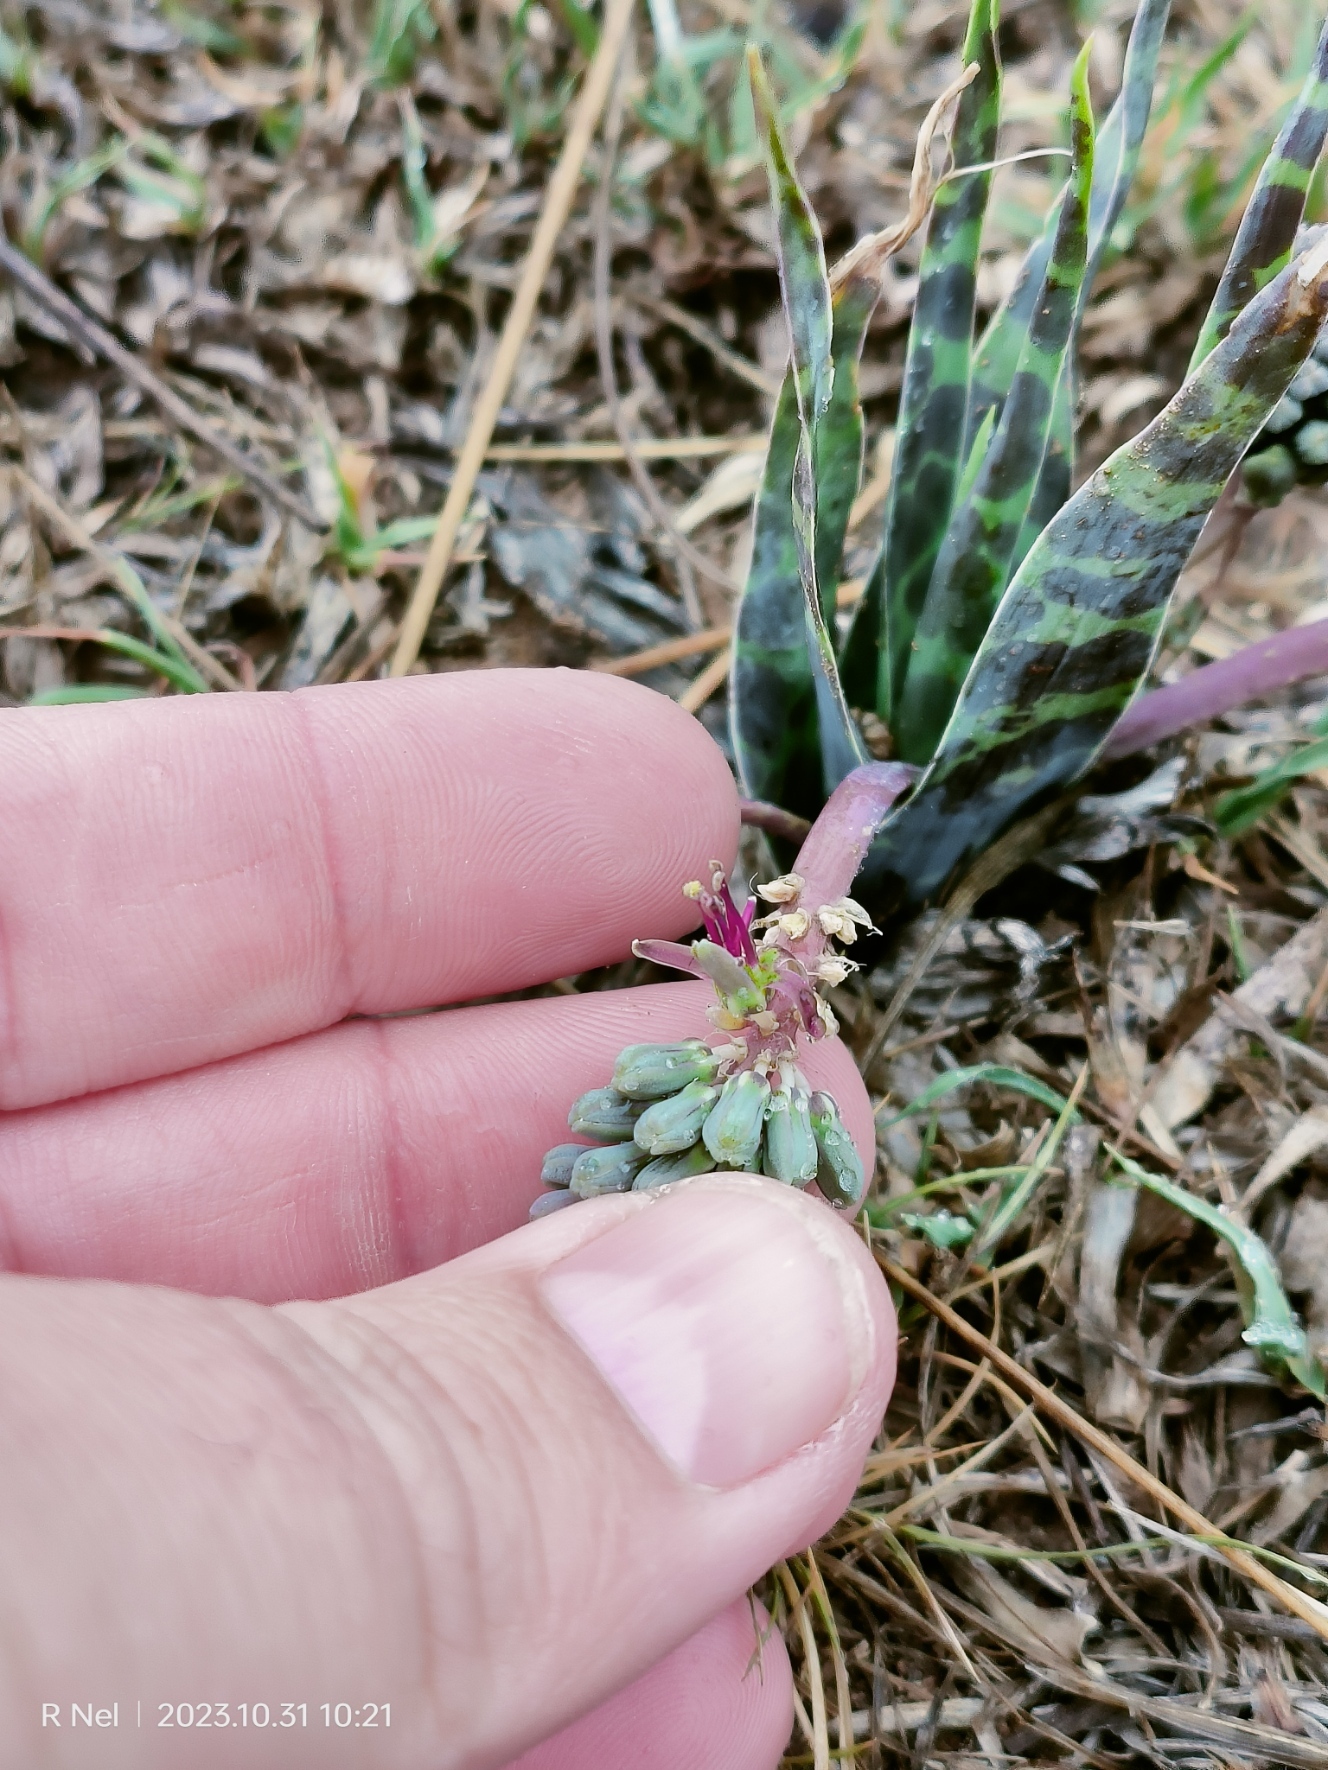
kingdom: Plantae
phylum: Tracheophyta
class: Liliopsida
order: Asparagales
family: Asparagaceae
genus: Ledebouria
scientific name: Ledebouria marginata
